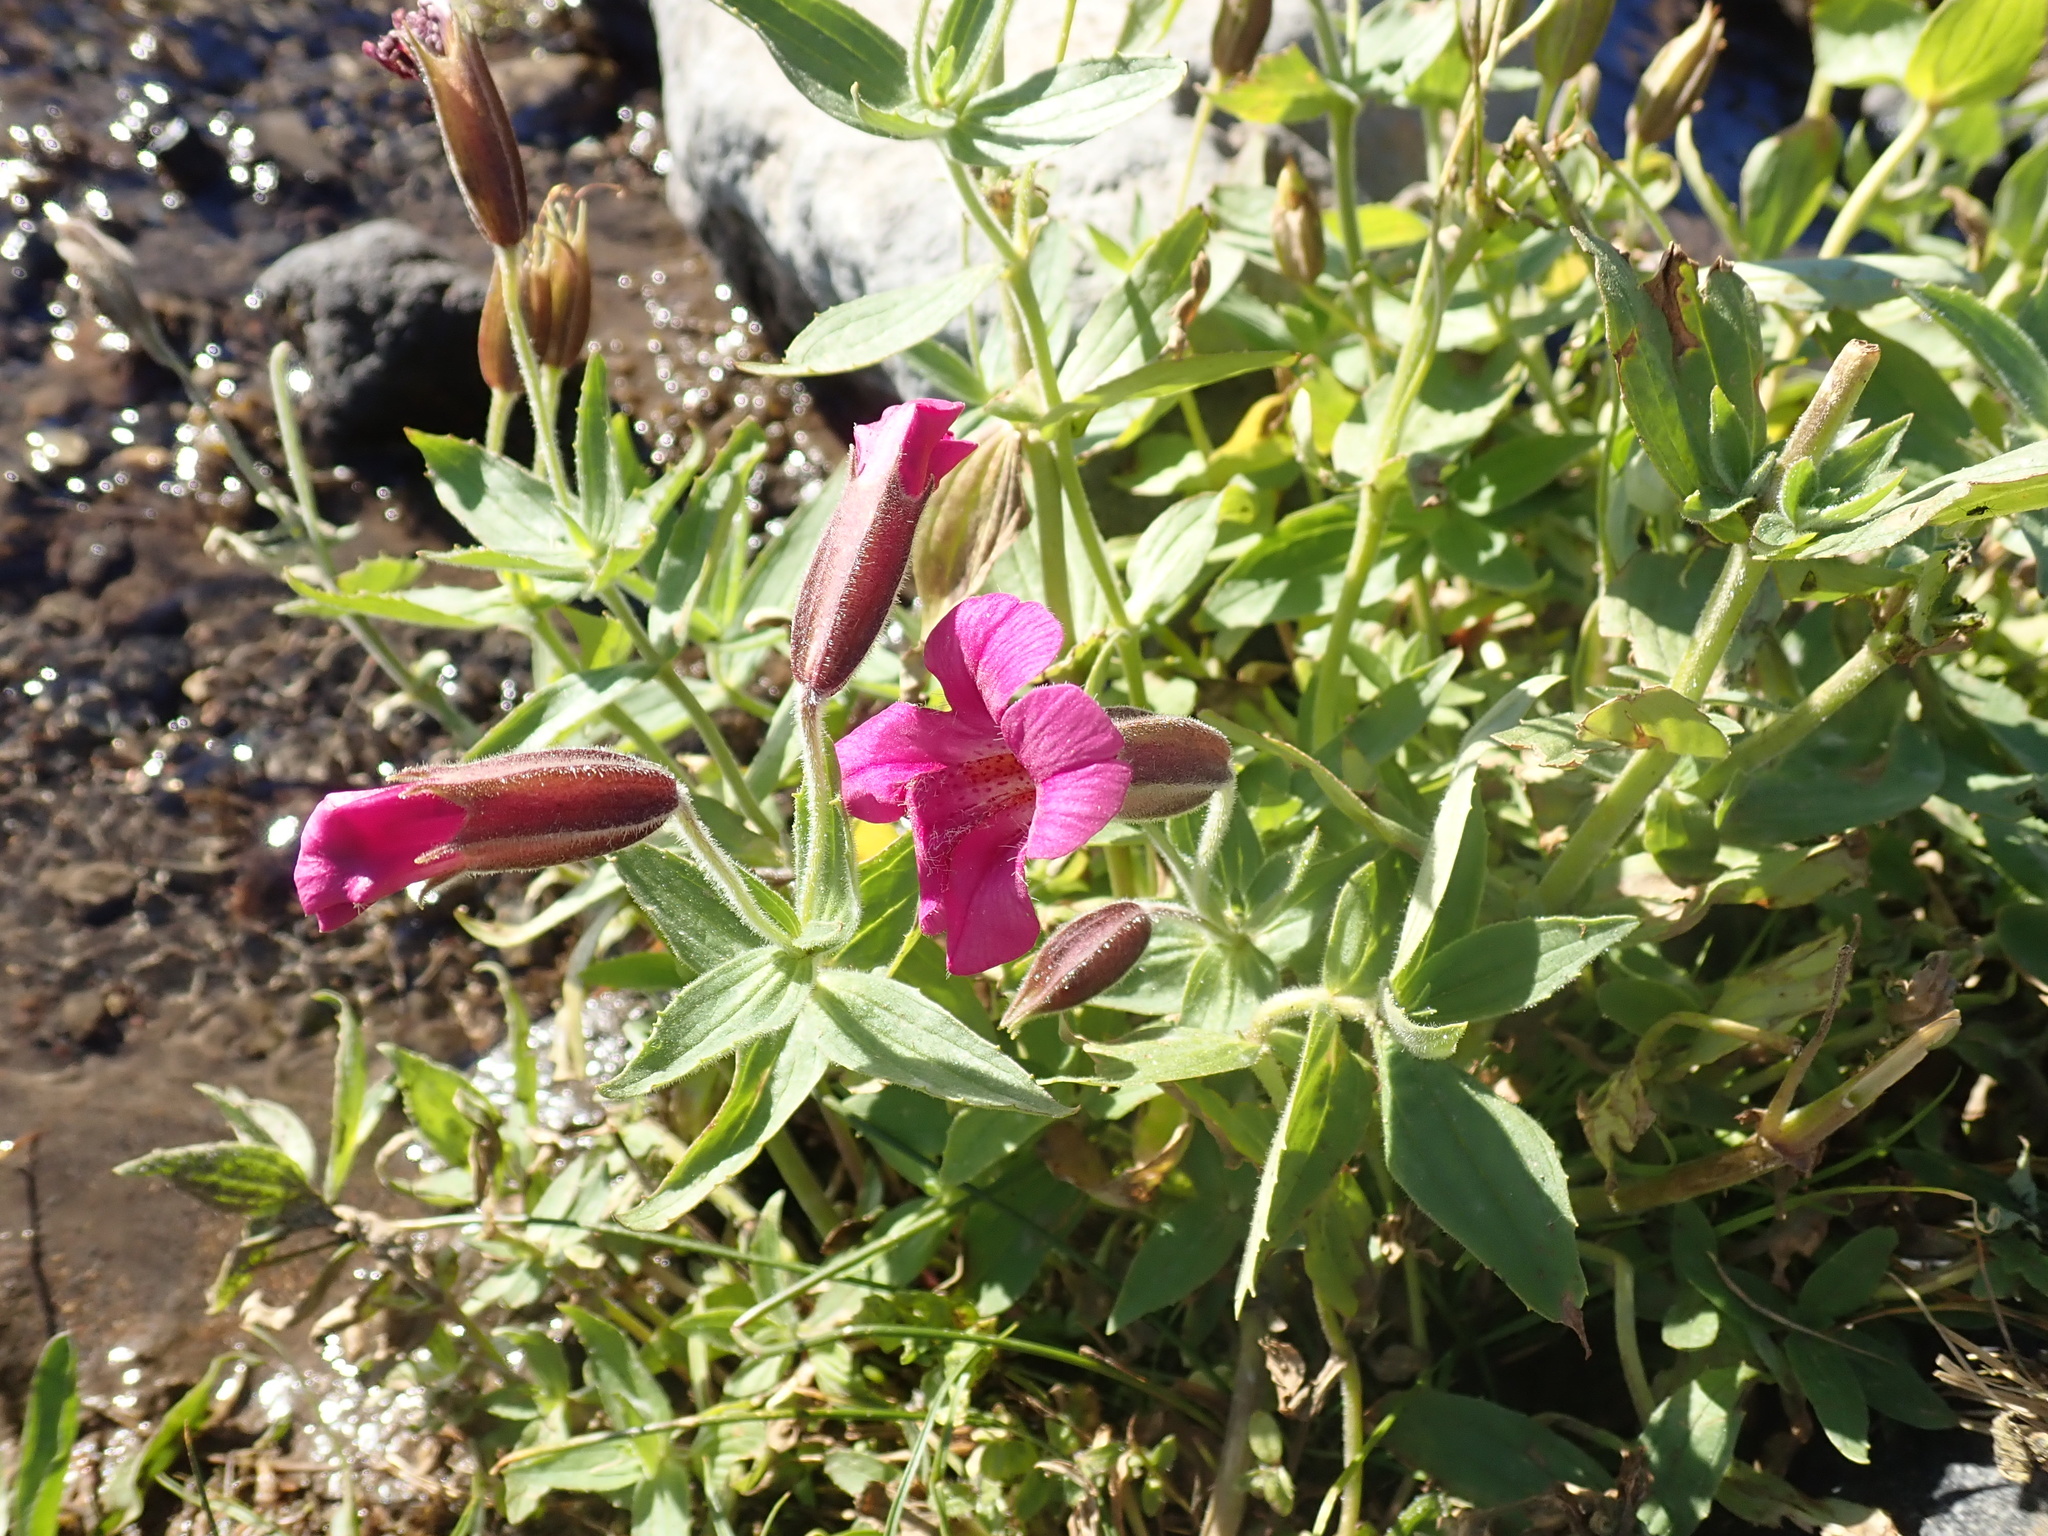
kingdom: Plantae
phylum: Tracheophyta
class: Magnoliopsida
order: Lamiales
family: Phrymaceae
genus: Erythranthe
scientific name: Erythranthe lewisii
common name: Lewis's monkey-flower
